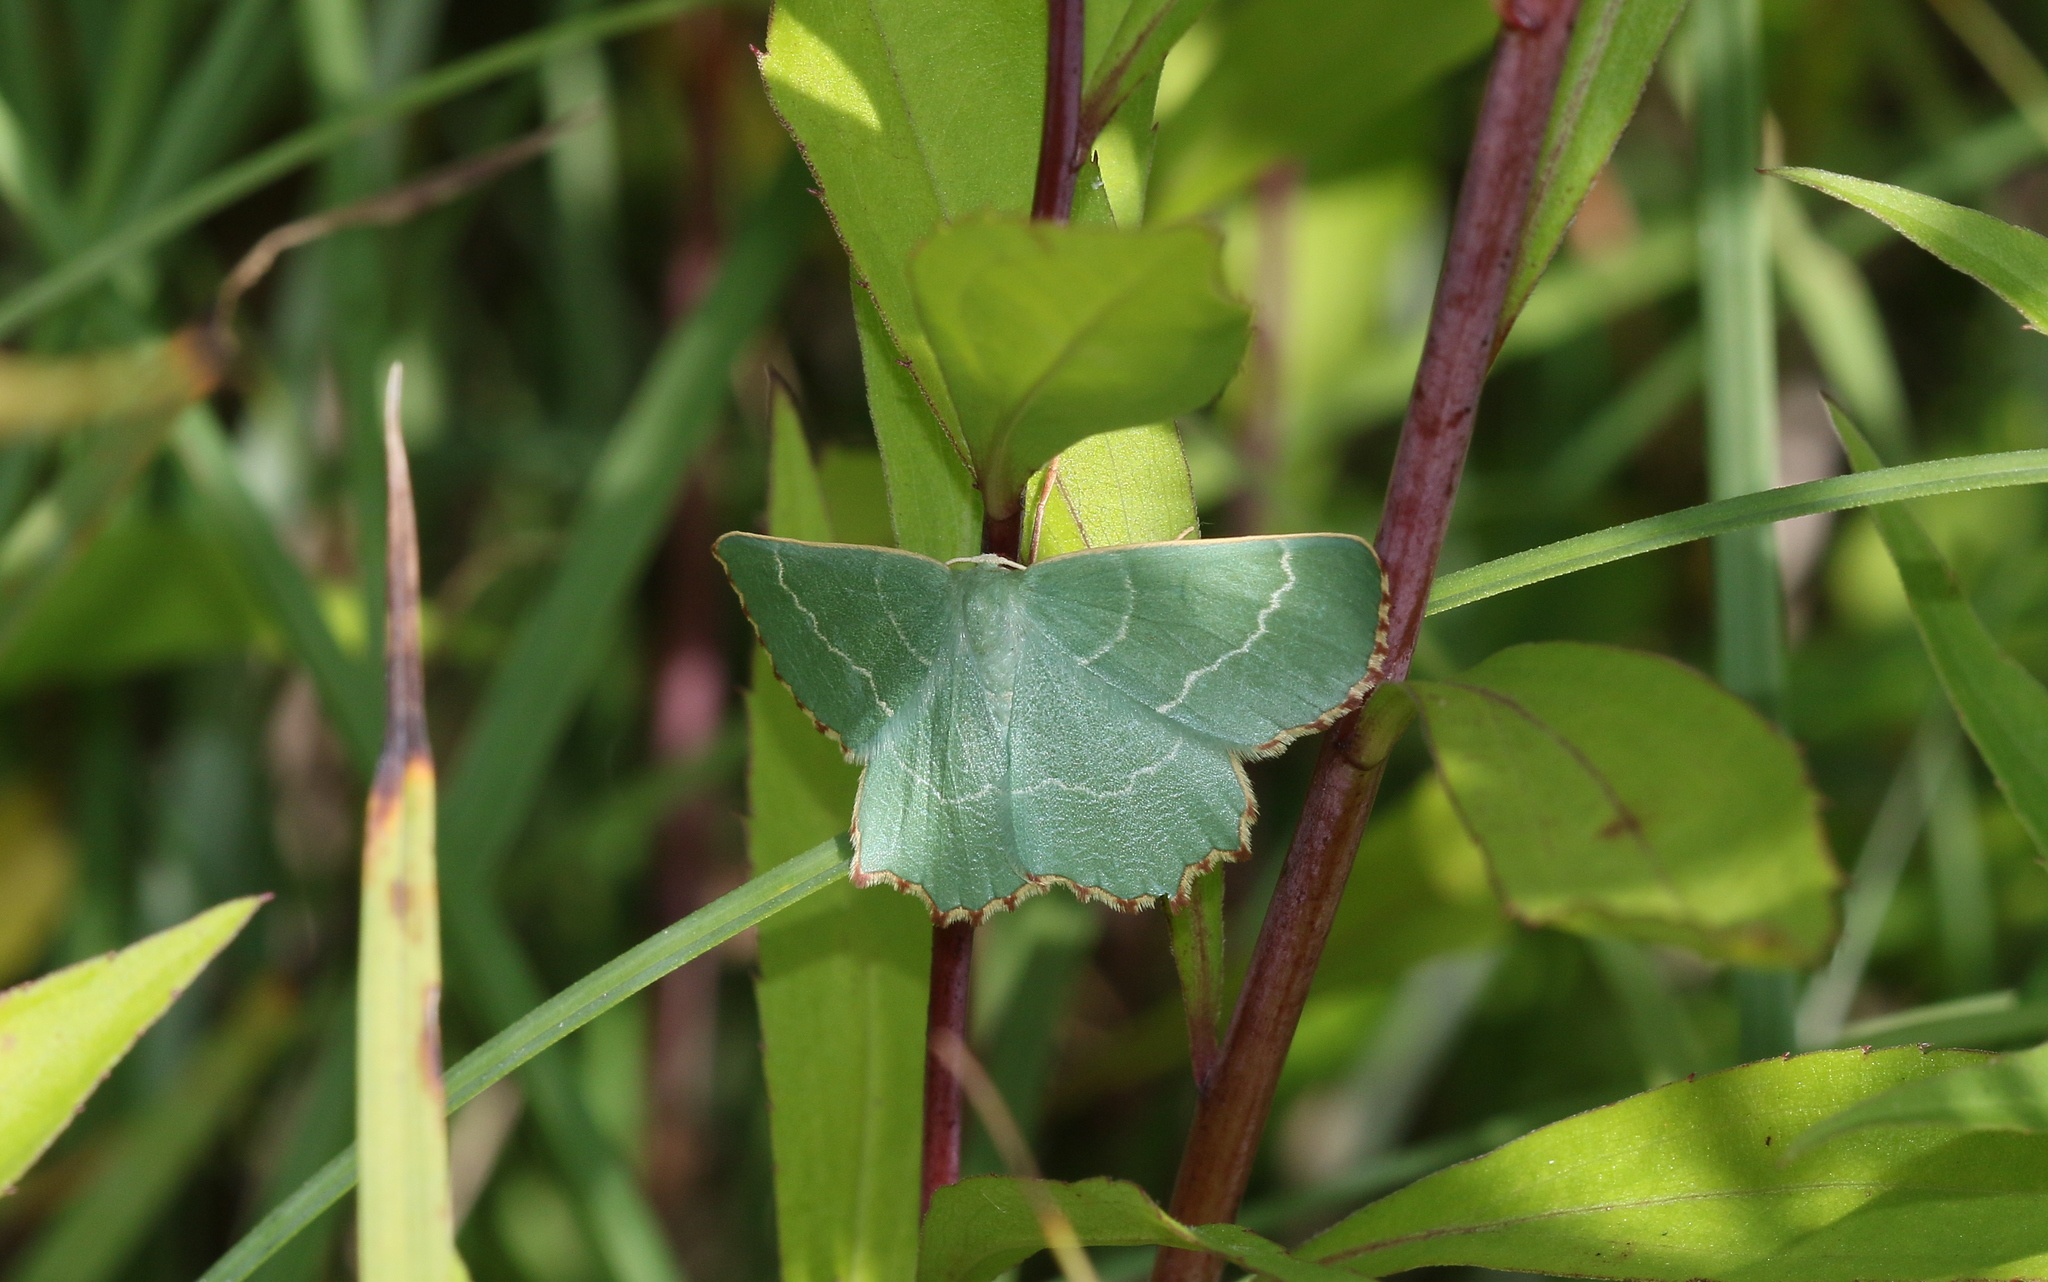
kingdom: Animalia
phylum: Arthropoda
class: Insecta
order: Lepidoptera
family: Geometridae
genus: Thalera
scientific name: Thalera fimbrialis
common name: Sussex emerald
